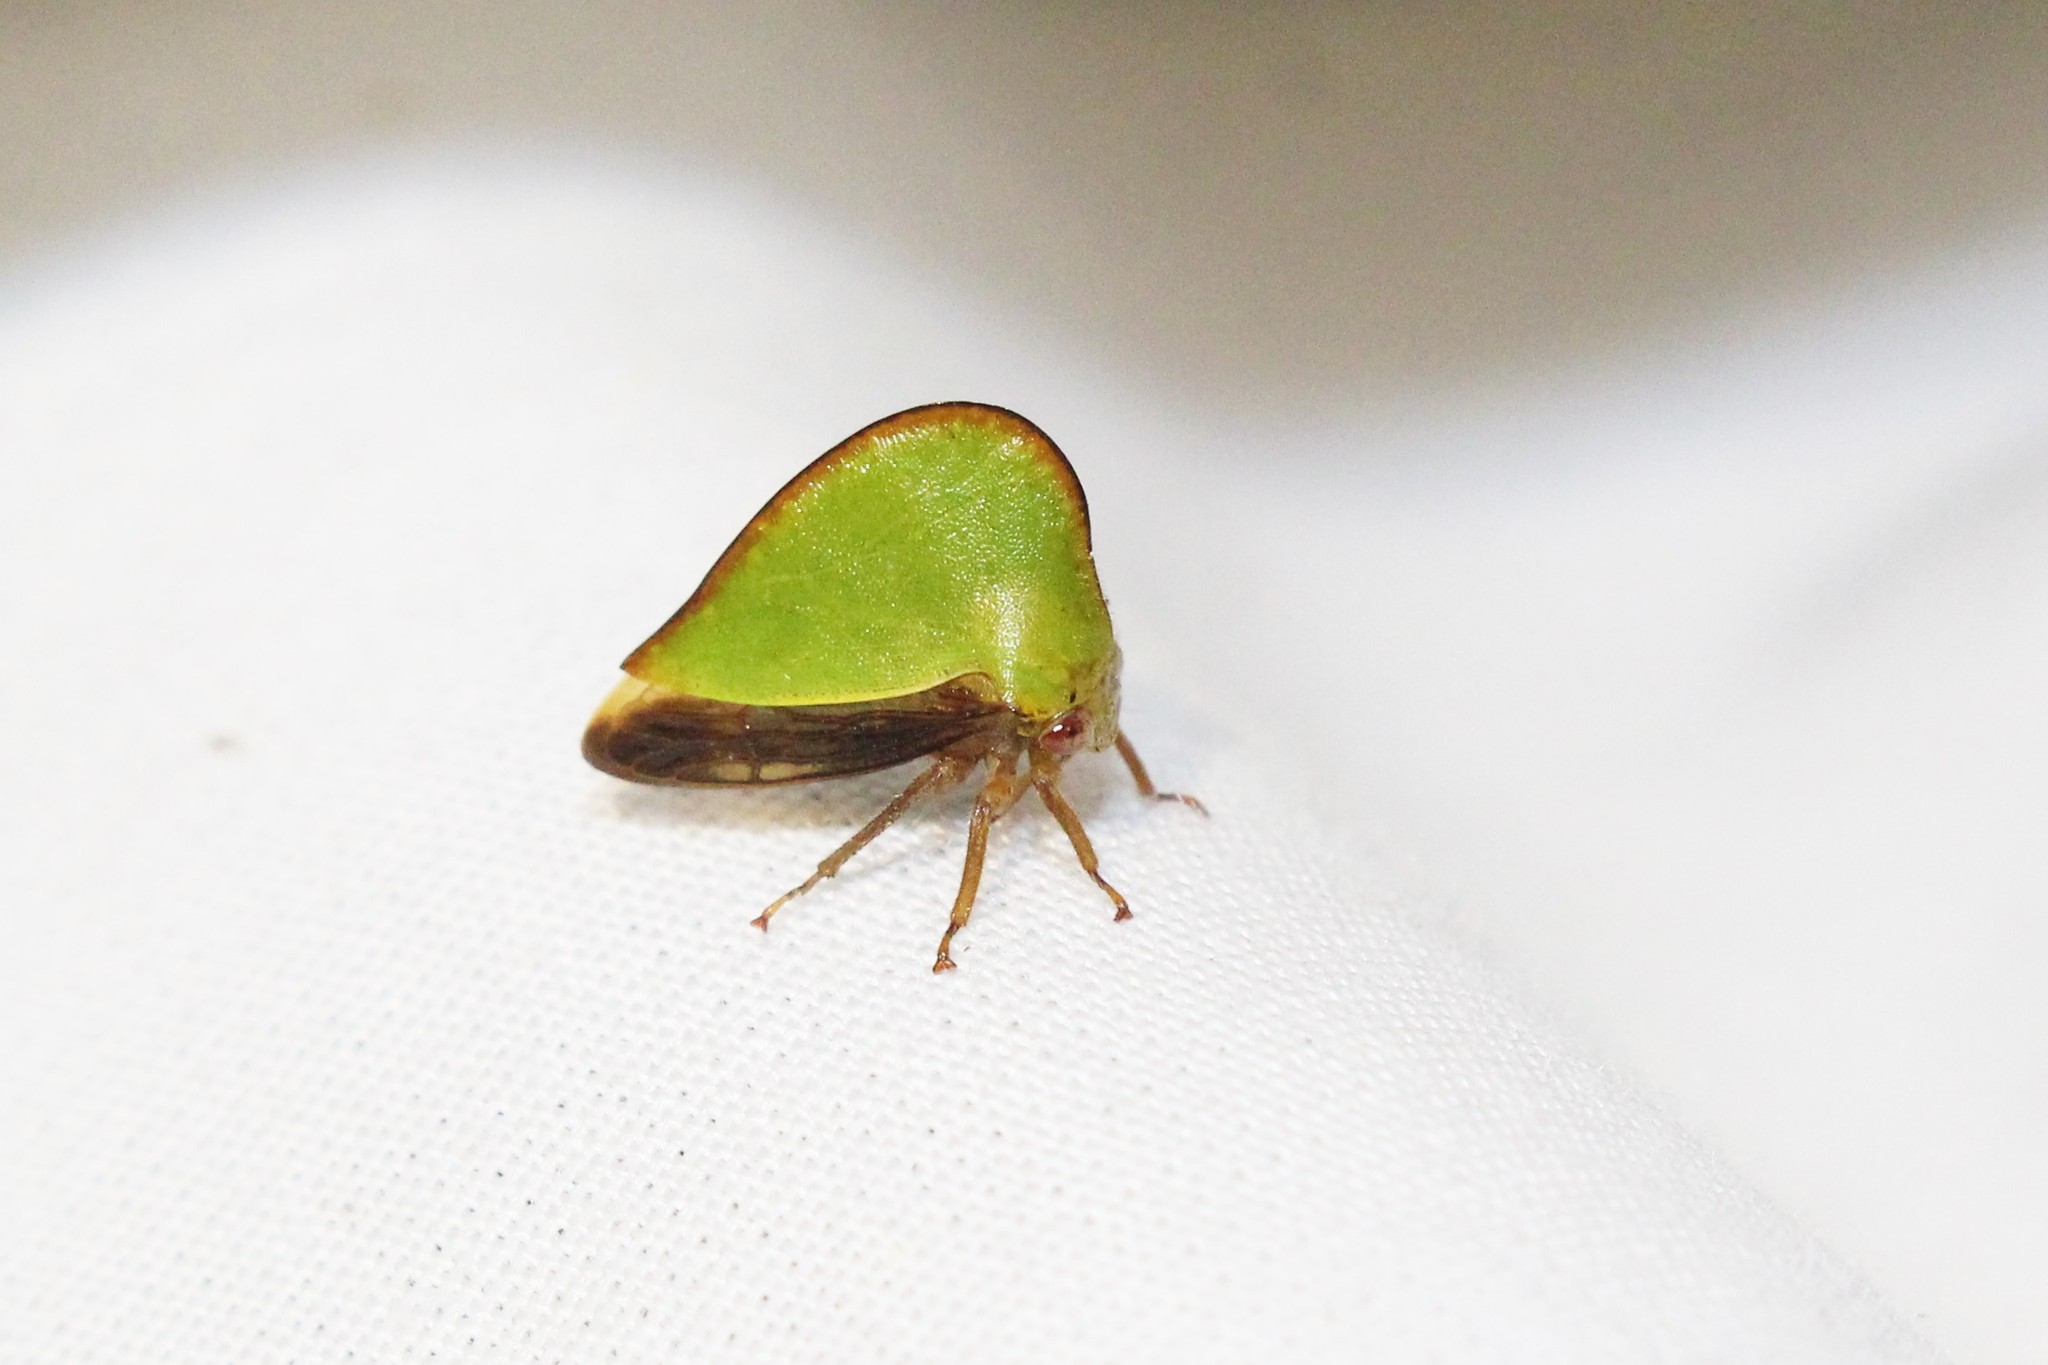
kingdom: Animalia
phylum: Arthropoda
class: Insecta
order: Hemiptera
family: Membracidae
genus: Archasia
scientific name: Archasia belfragei
